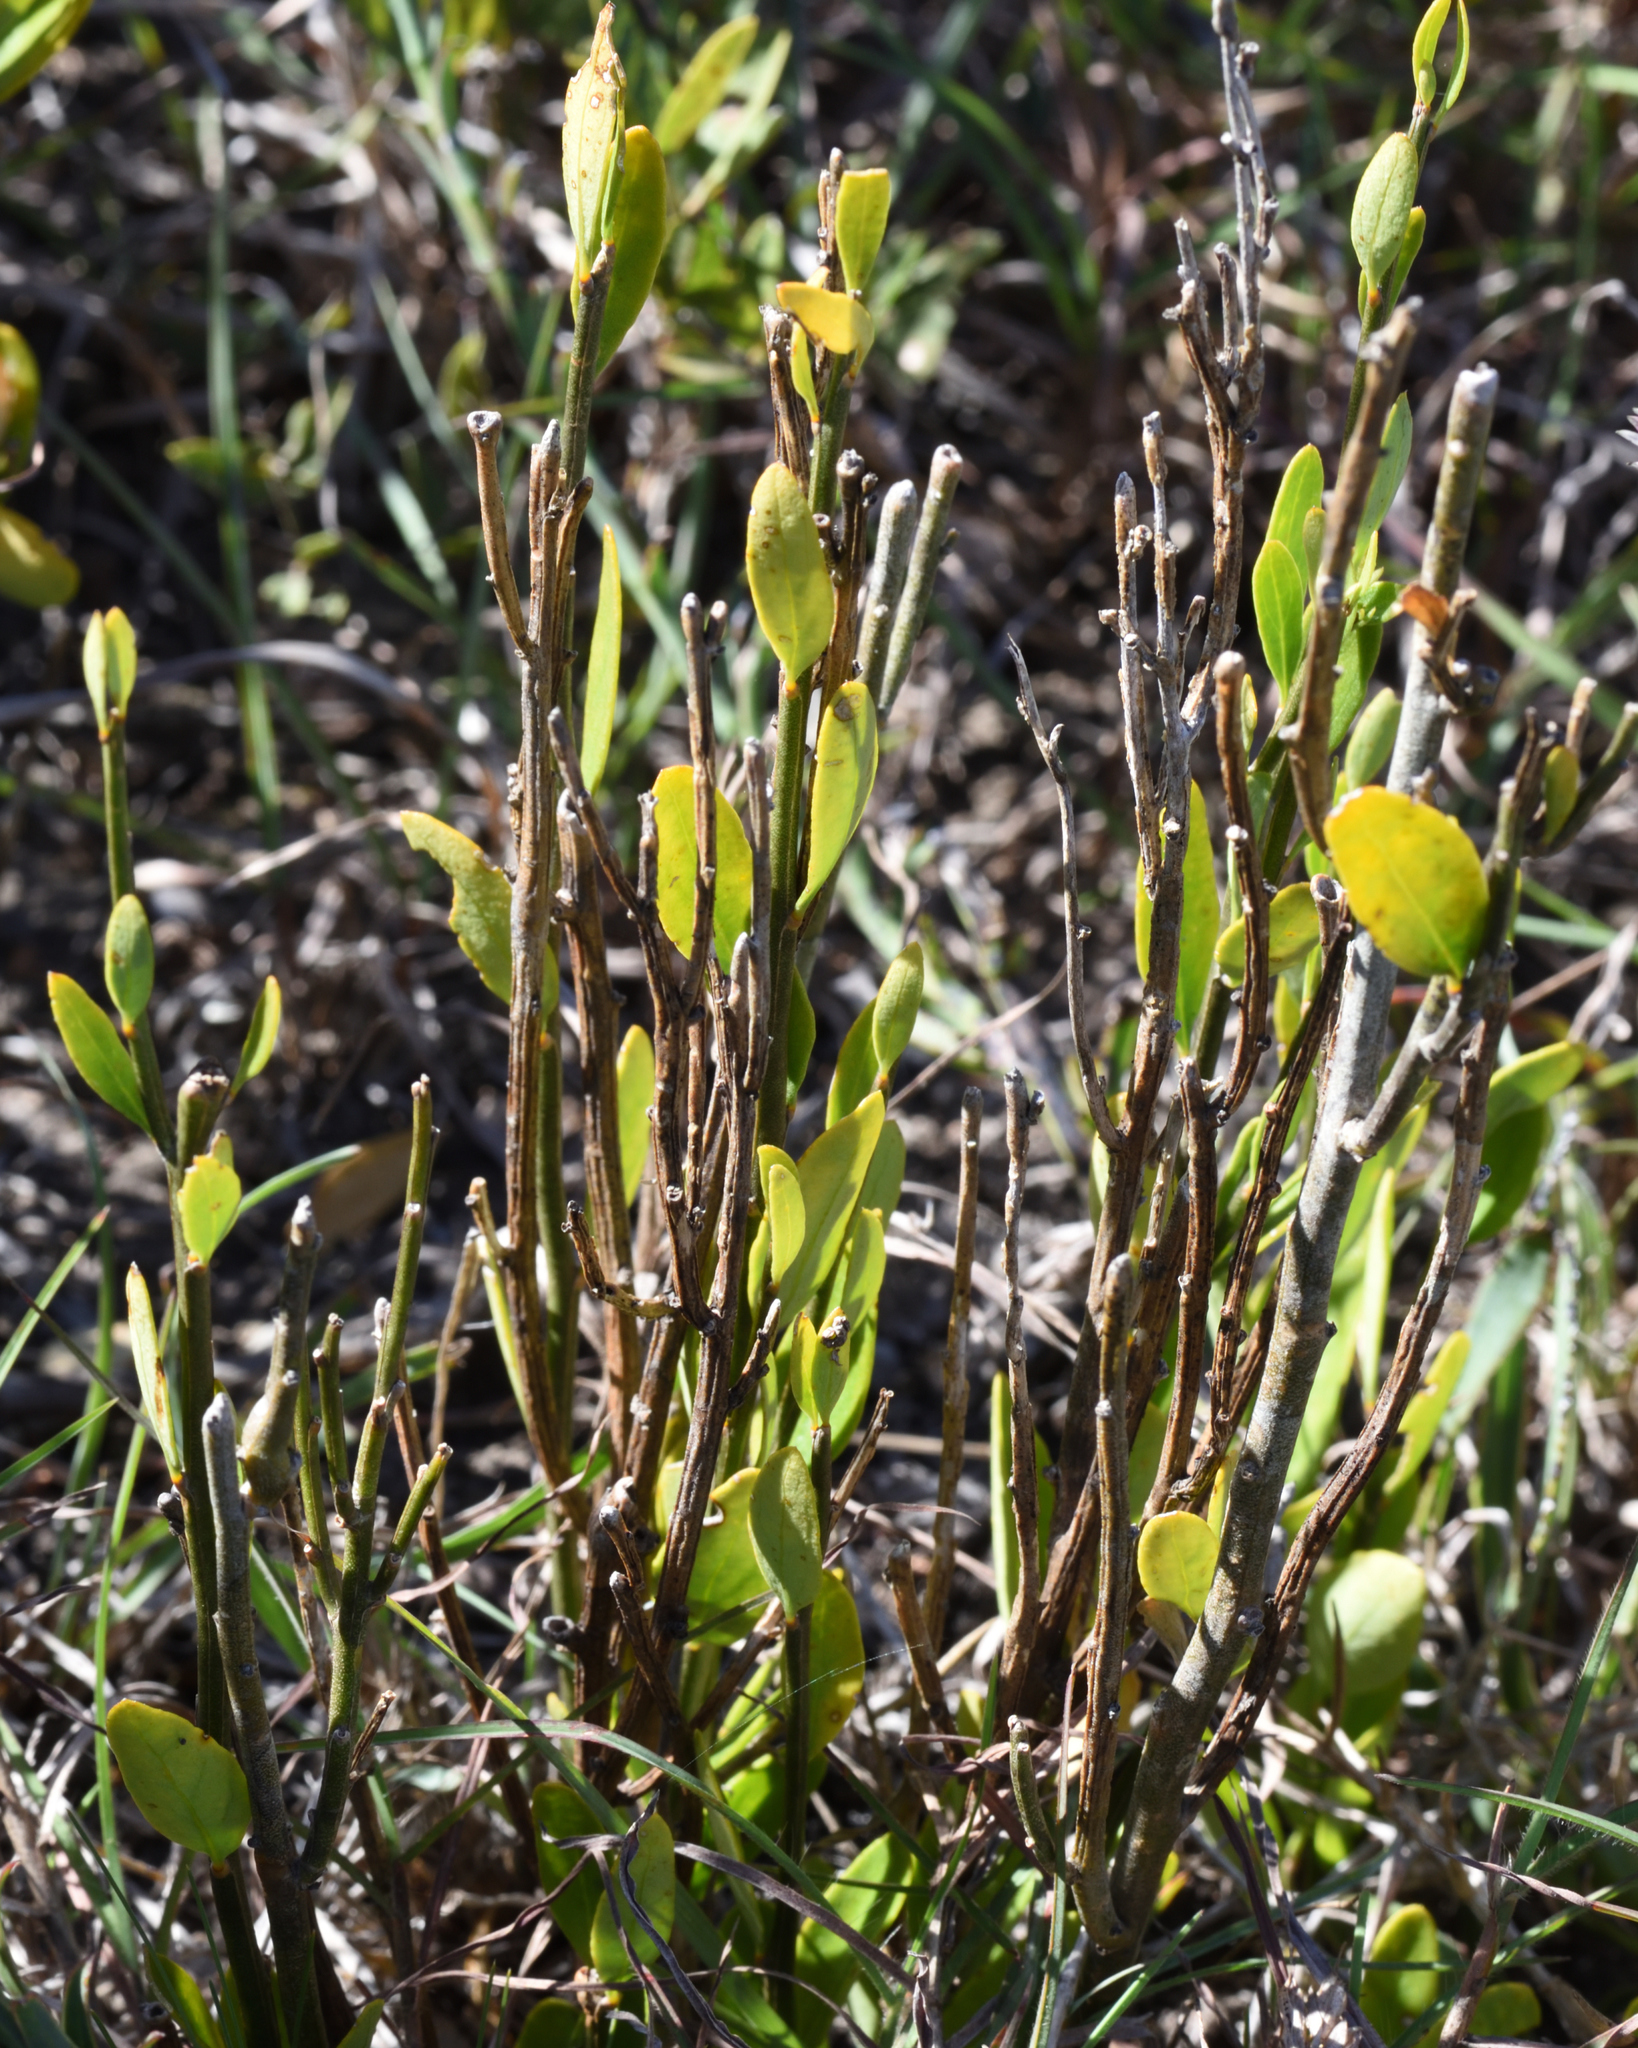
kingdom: Plantae
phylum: Tracheophyta
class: Magnoliopsida
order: Solanales
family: Montiniaceae
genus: Montinia
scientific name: Montinia caryophyllacea
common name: Wild clove-bush
